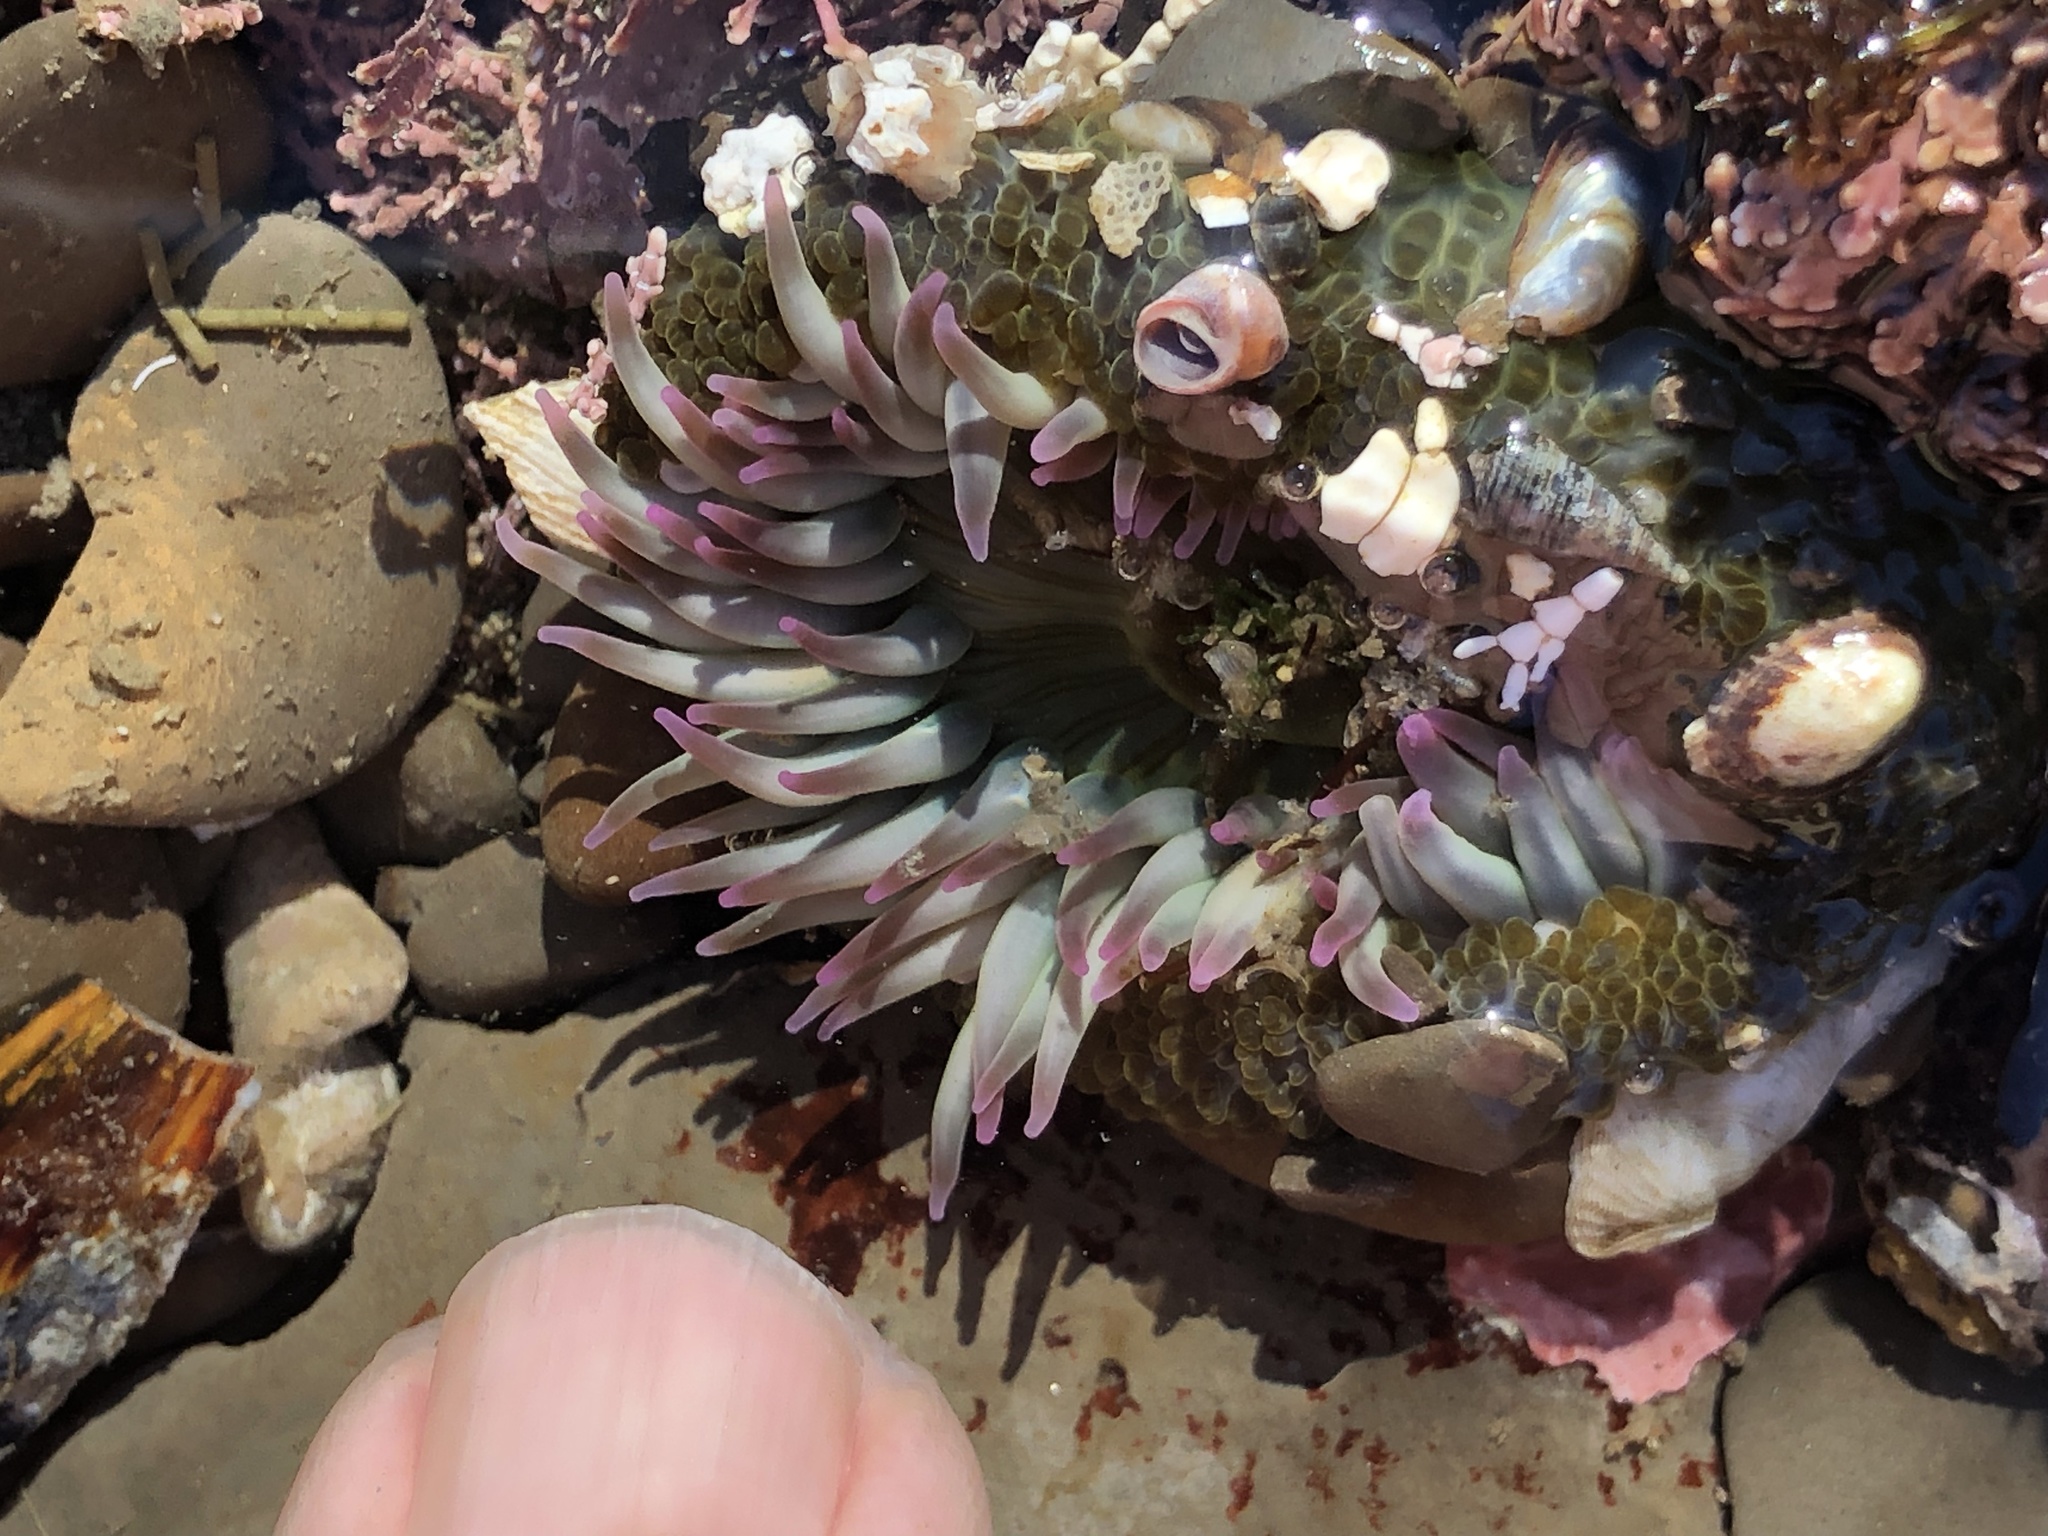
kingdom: Animalia
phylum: Cnidaria
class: Anthozoa
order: Actiniaria
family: Actiniidae
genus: Anthopleura
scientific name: Anthopleura elegantissima
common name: Clonal anemone
